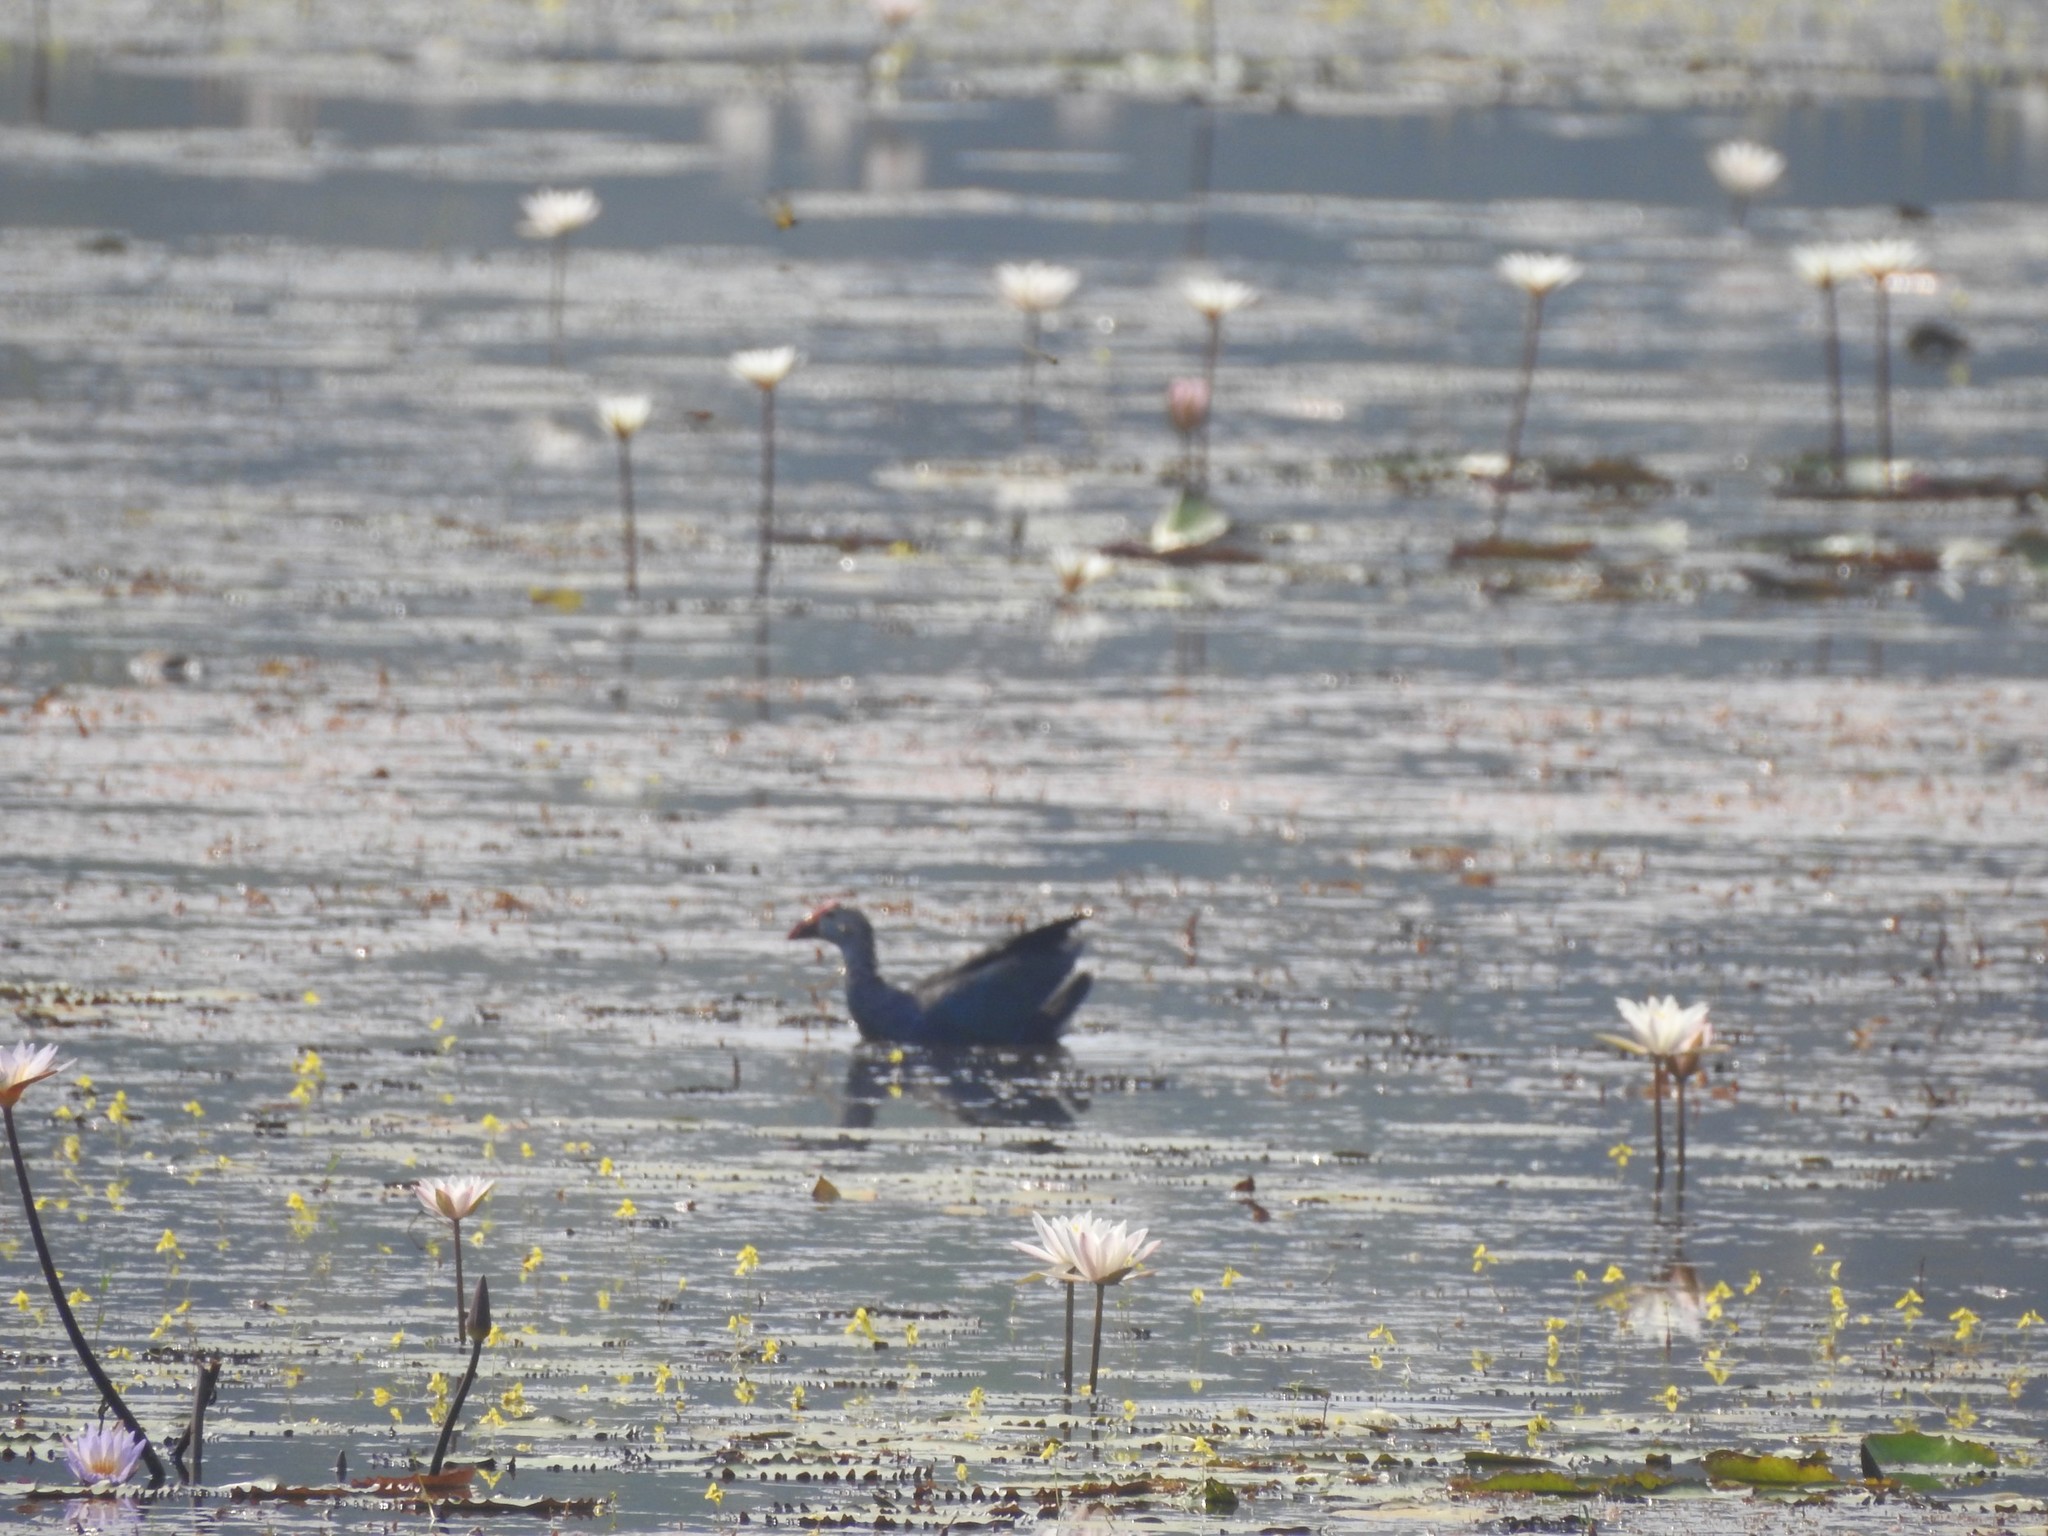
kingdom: Animalia
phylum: Chordata
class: Aves
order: Gruiformes
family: Rallidae
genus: Porphyrio
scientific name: Porphyrio porphyrio
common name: Purple swamphen
